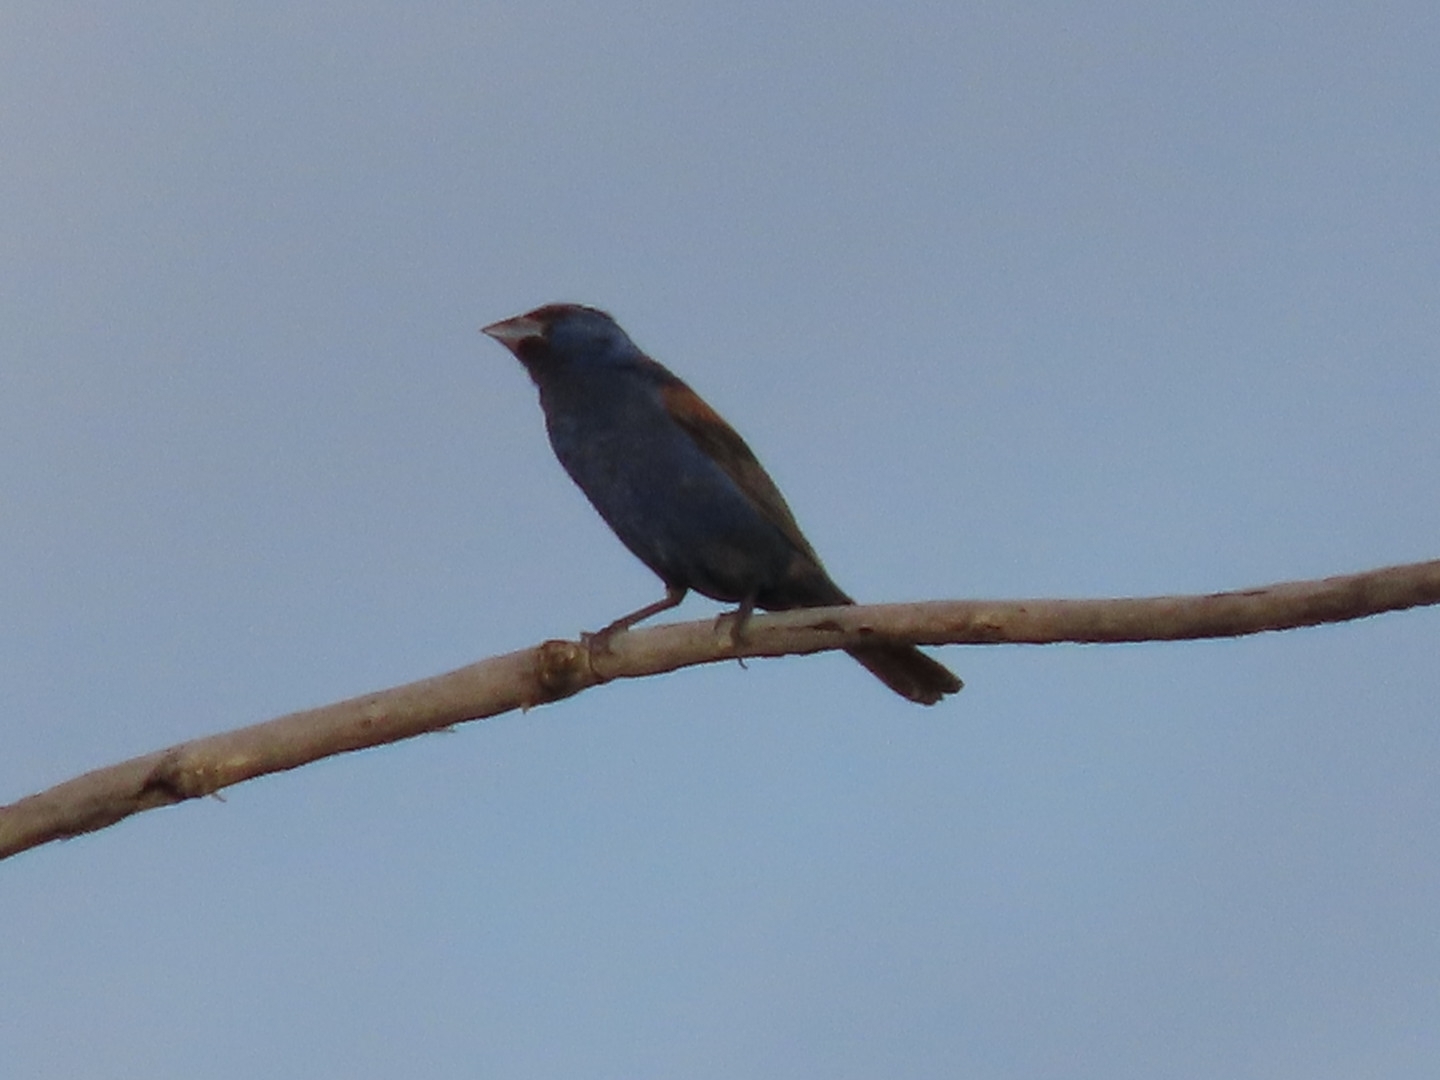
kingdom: Animalia
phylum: Chordata
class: Aves
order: Passeriformes
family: Cardinalidae
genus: Passerina
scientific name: Passerina caerulea
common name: Blue grosbeak
